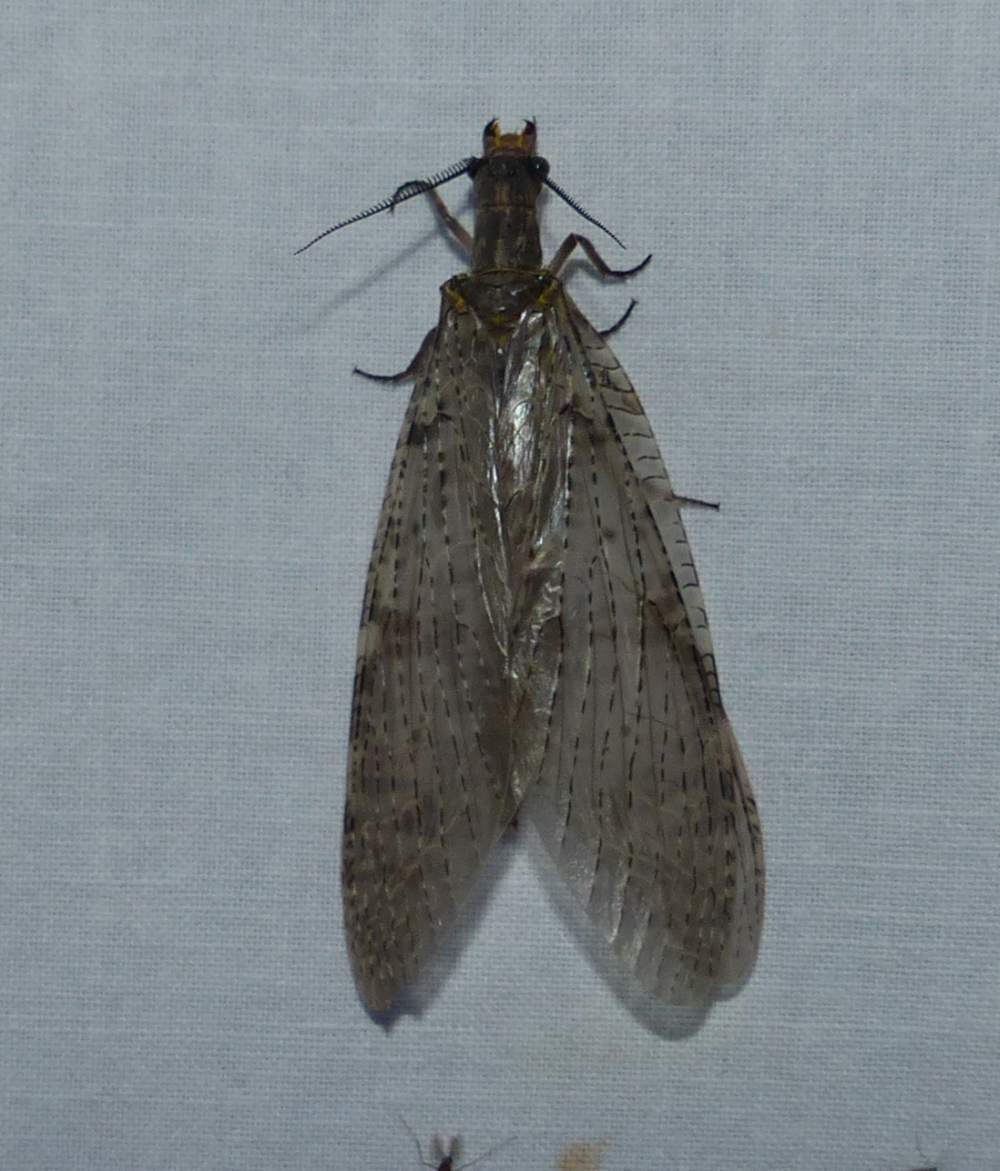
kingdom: Animalia
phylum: Arthropoda
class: Insecta
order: Megaloptera
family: Corydalidae
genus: Chauliodes
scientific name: Chauliodes pectinicornis
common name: Summer fishfly
